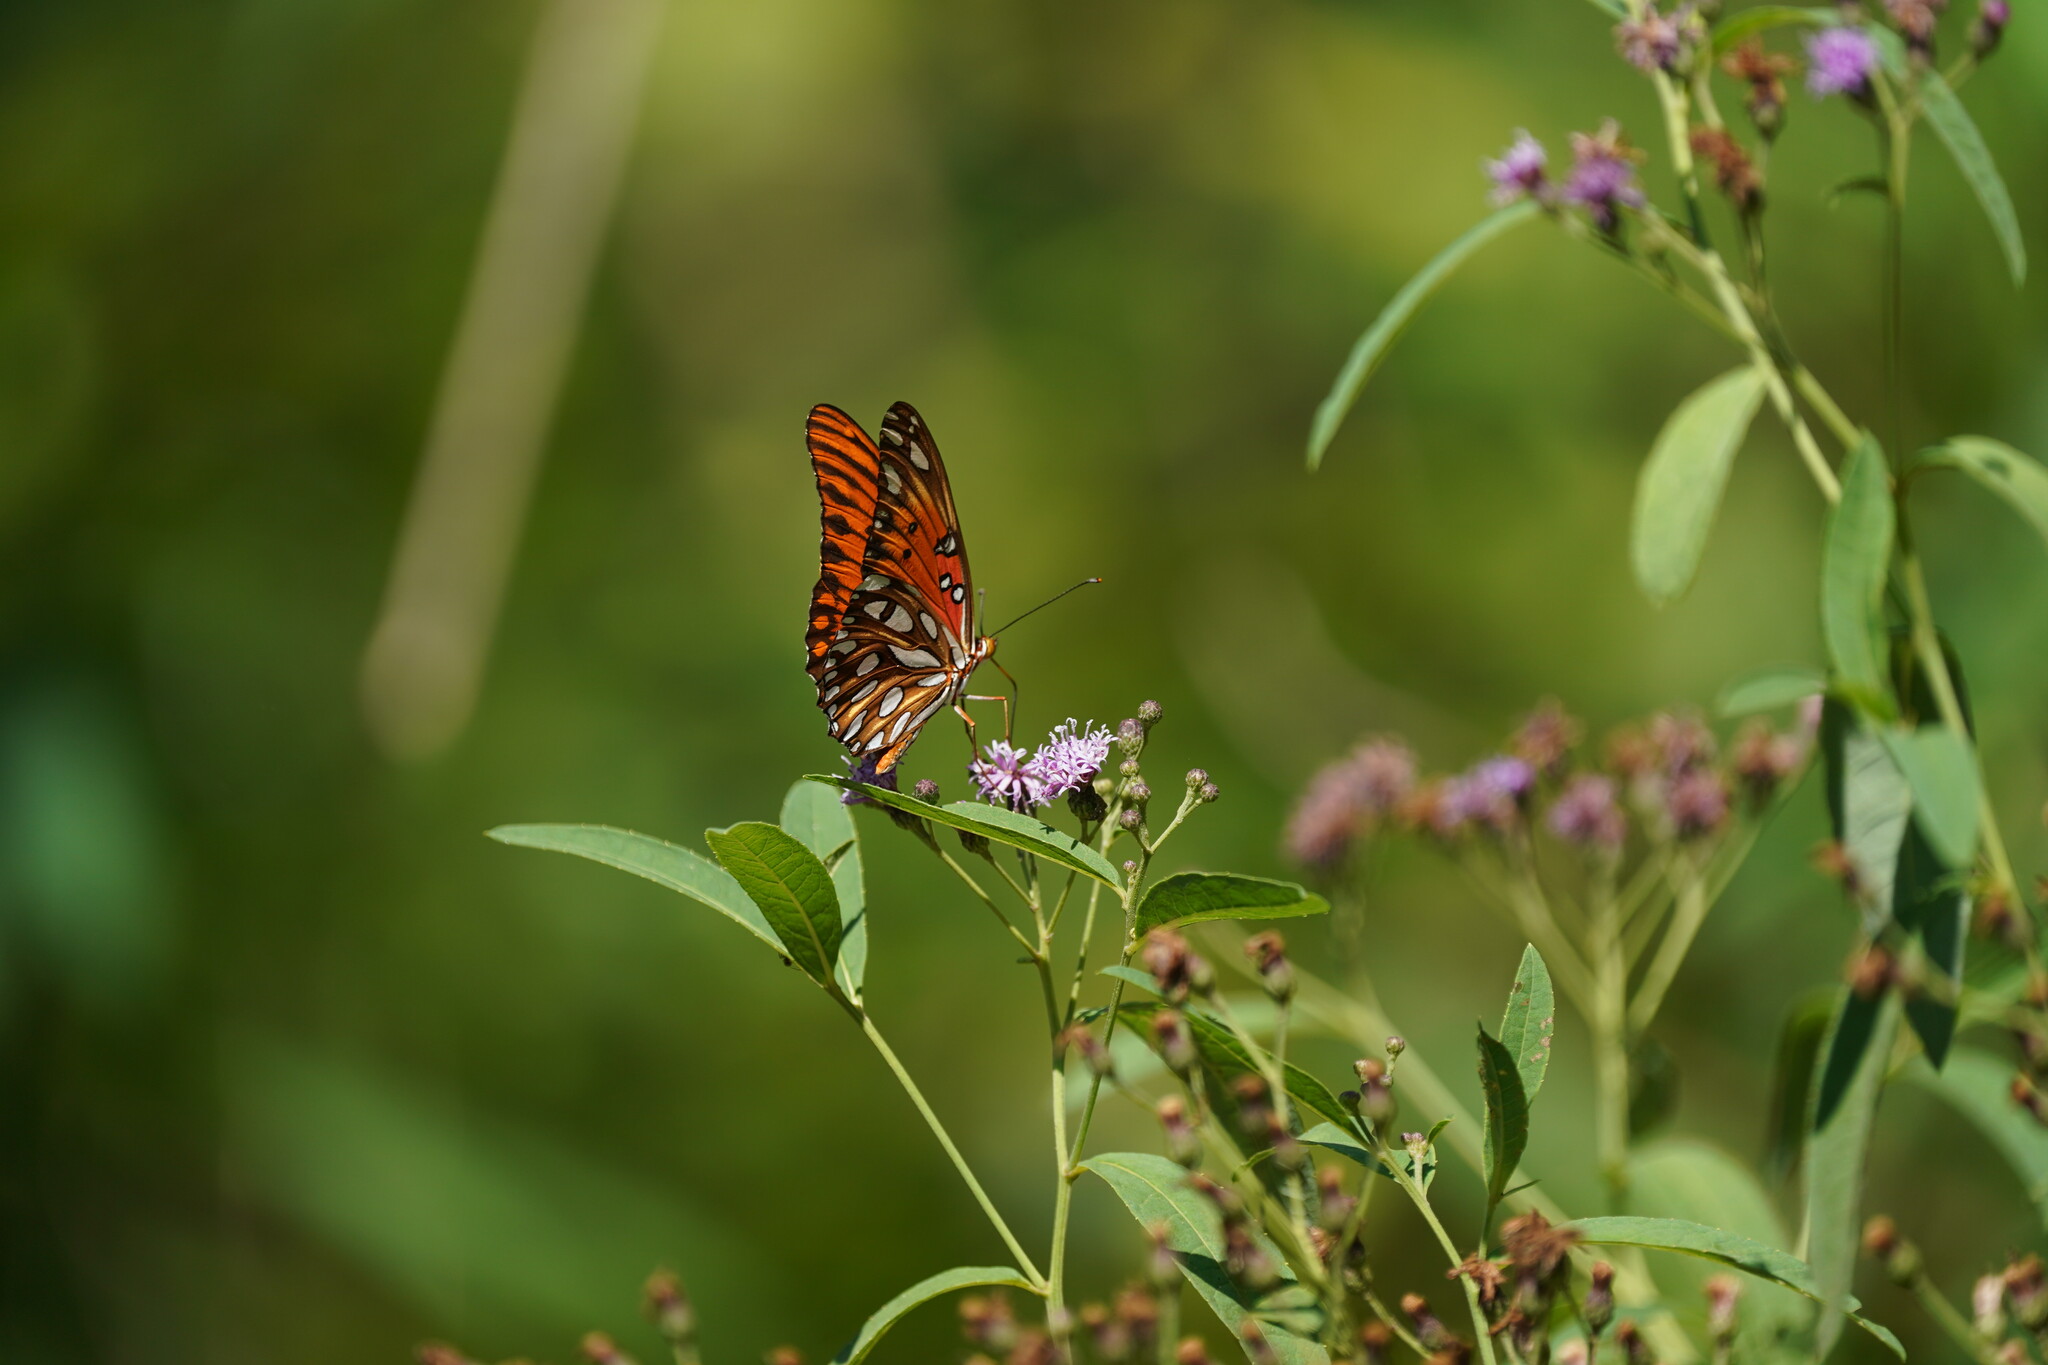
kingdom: Animalia
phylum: Arthropoda
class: Insecta
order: Lepidoptera
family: Nymphalidae
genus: Dione
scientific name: Dione vanillae
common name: Gulf fritillary
